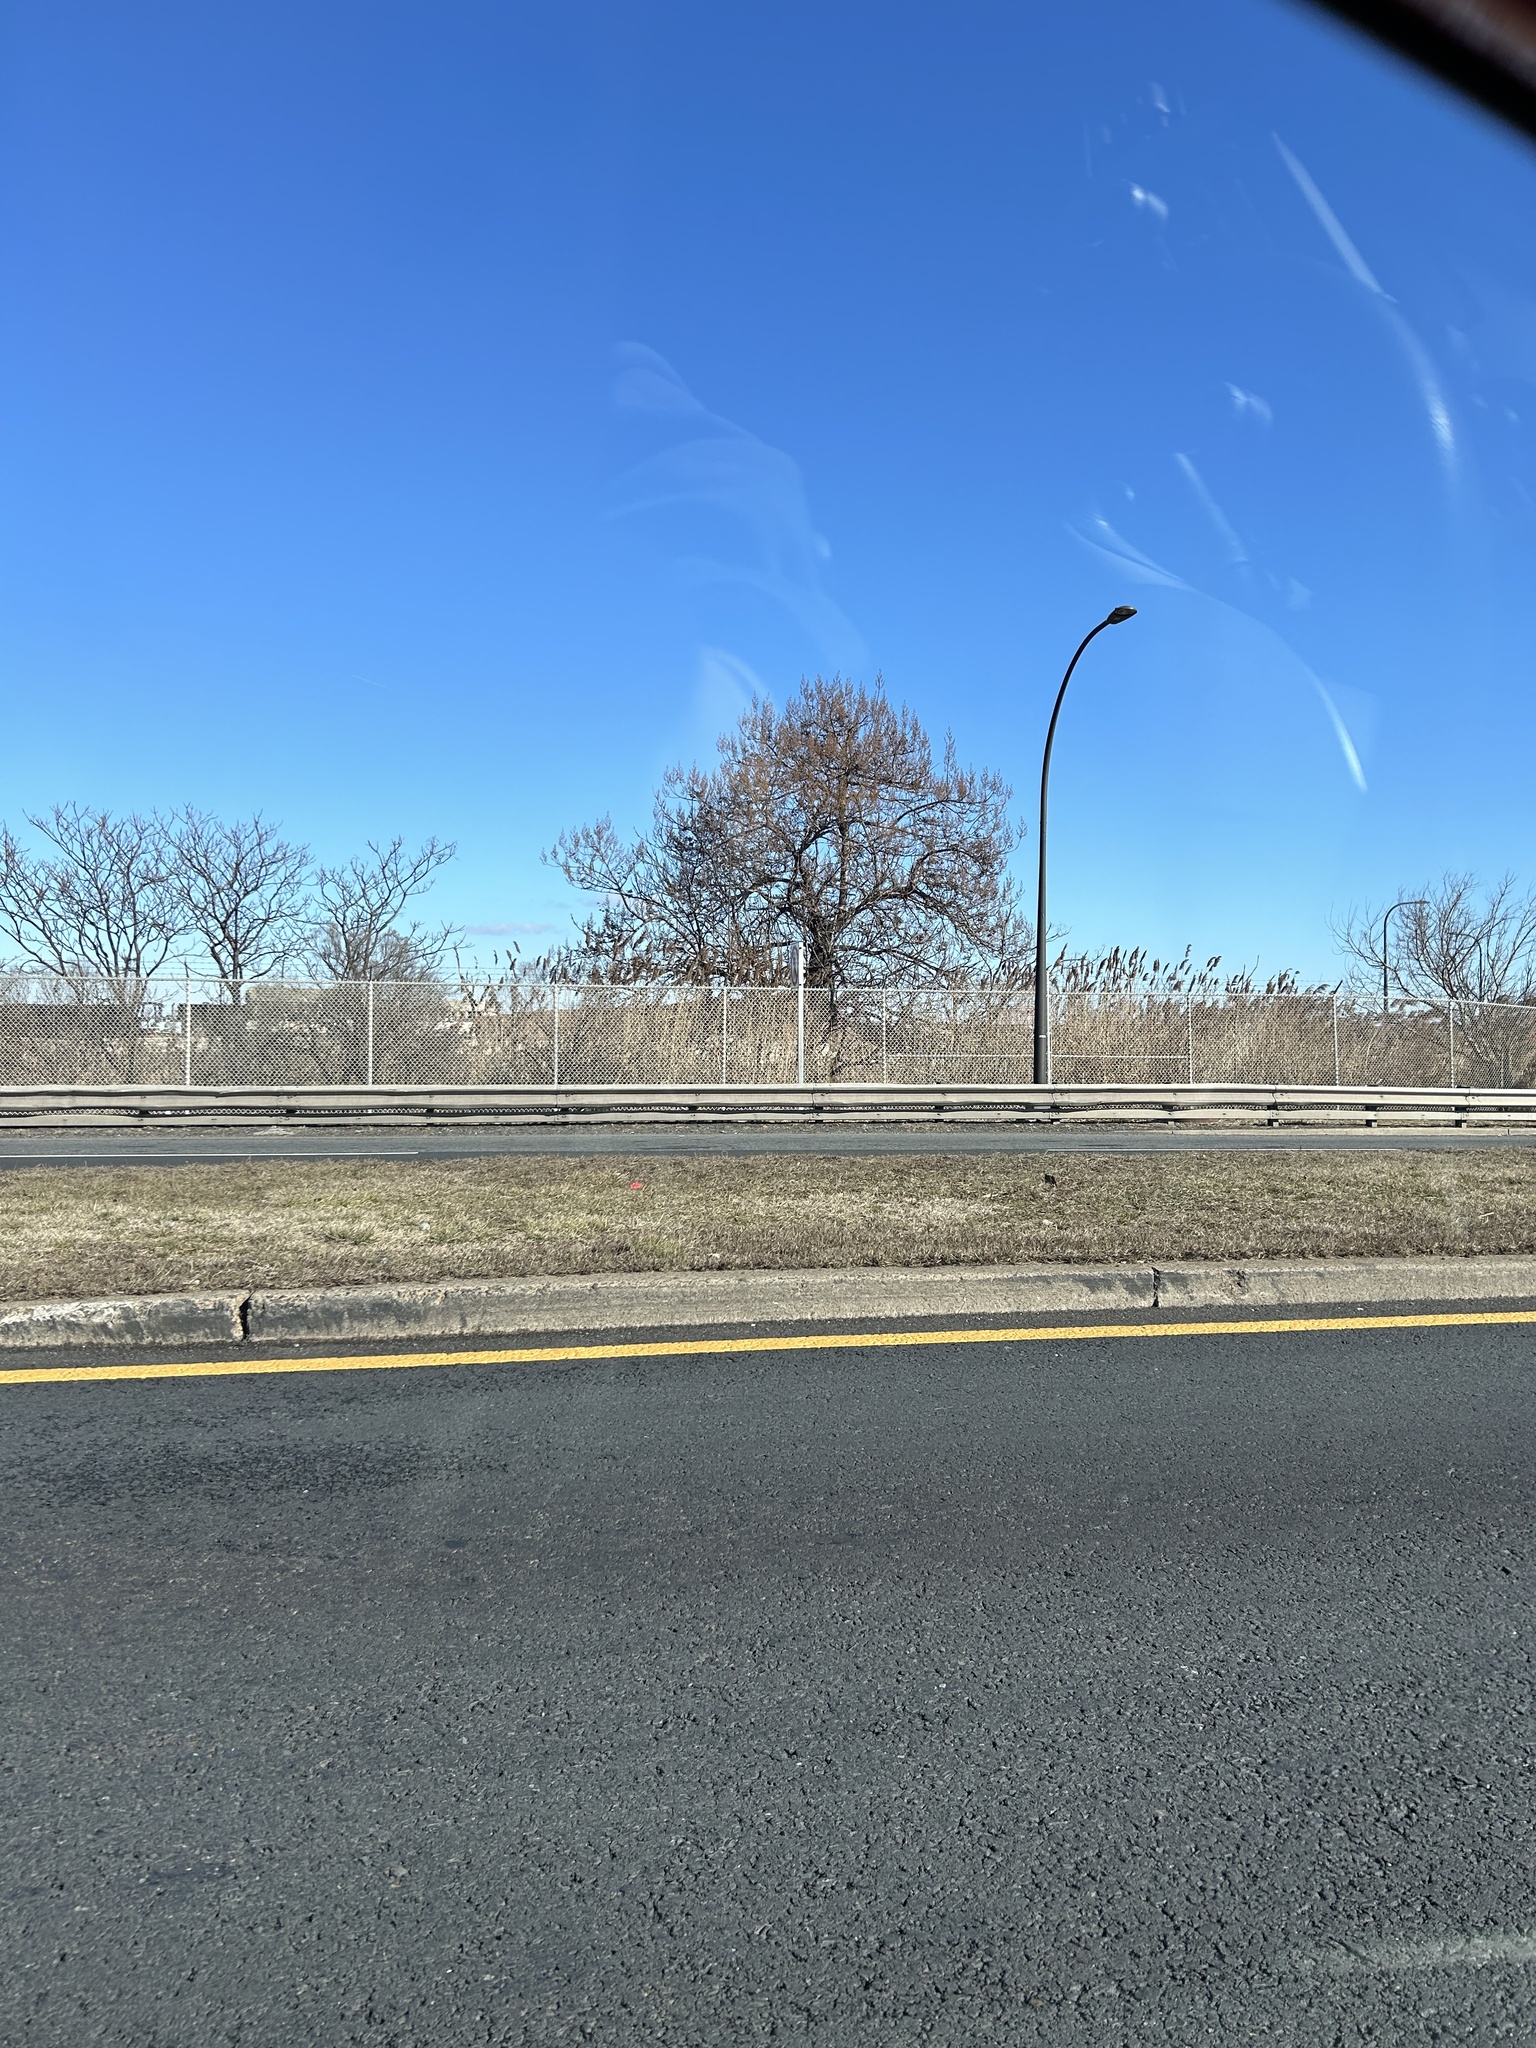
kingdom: Plantae
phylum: Tracheophyta
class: Magnoliopsida
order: Lamiales
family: Paulowniaceae
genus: Paulownia
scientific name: Paulownia tomentosa
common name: Foxglove-tree
